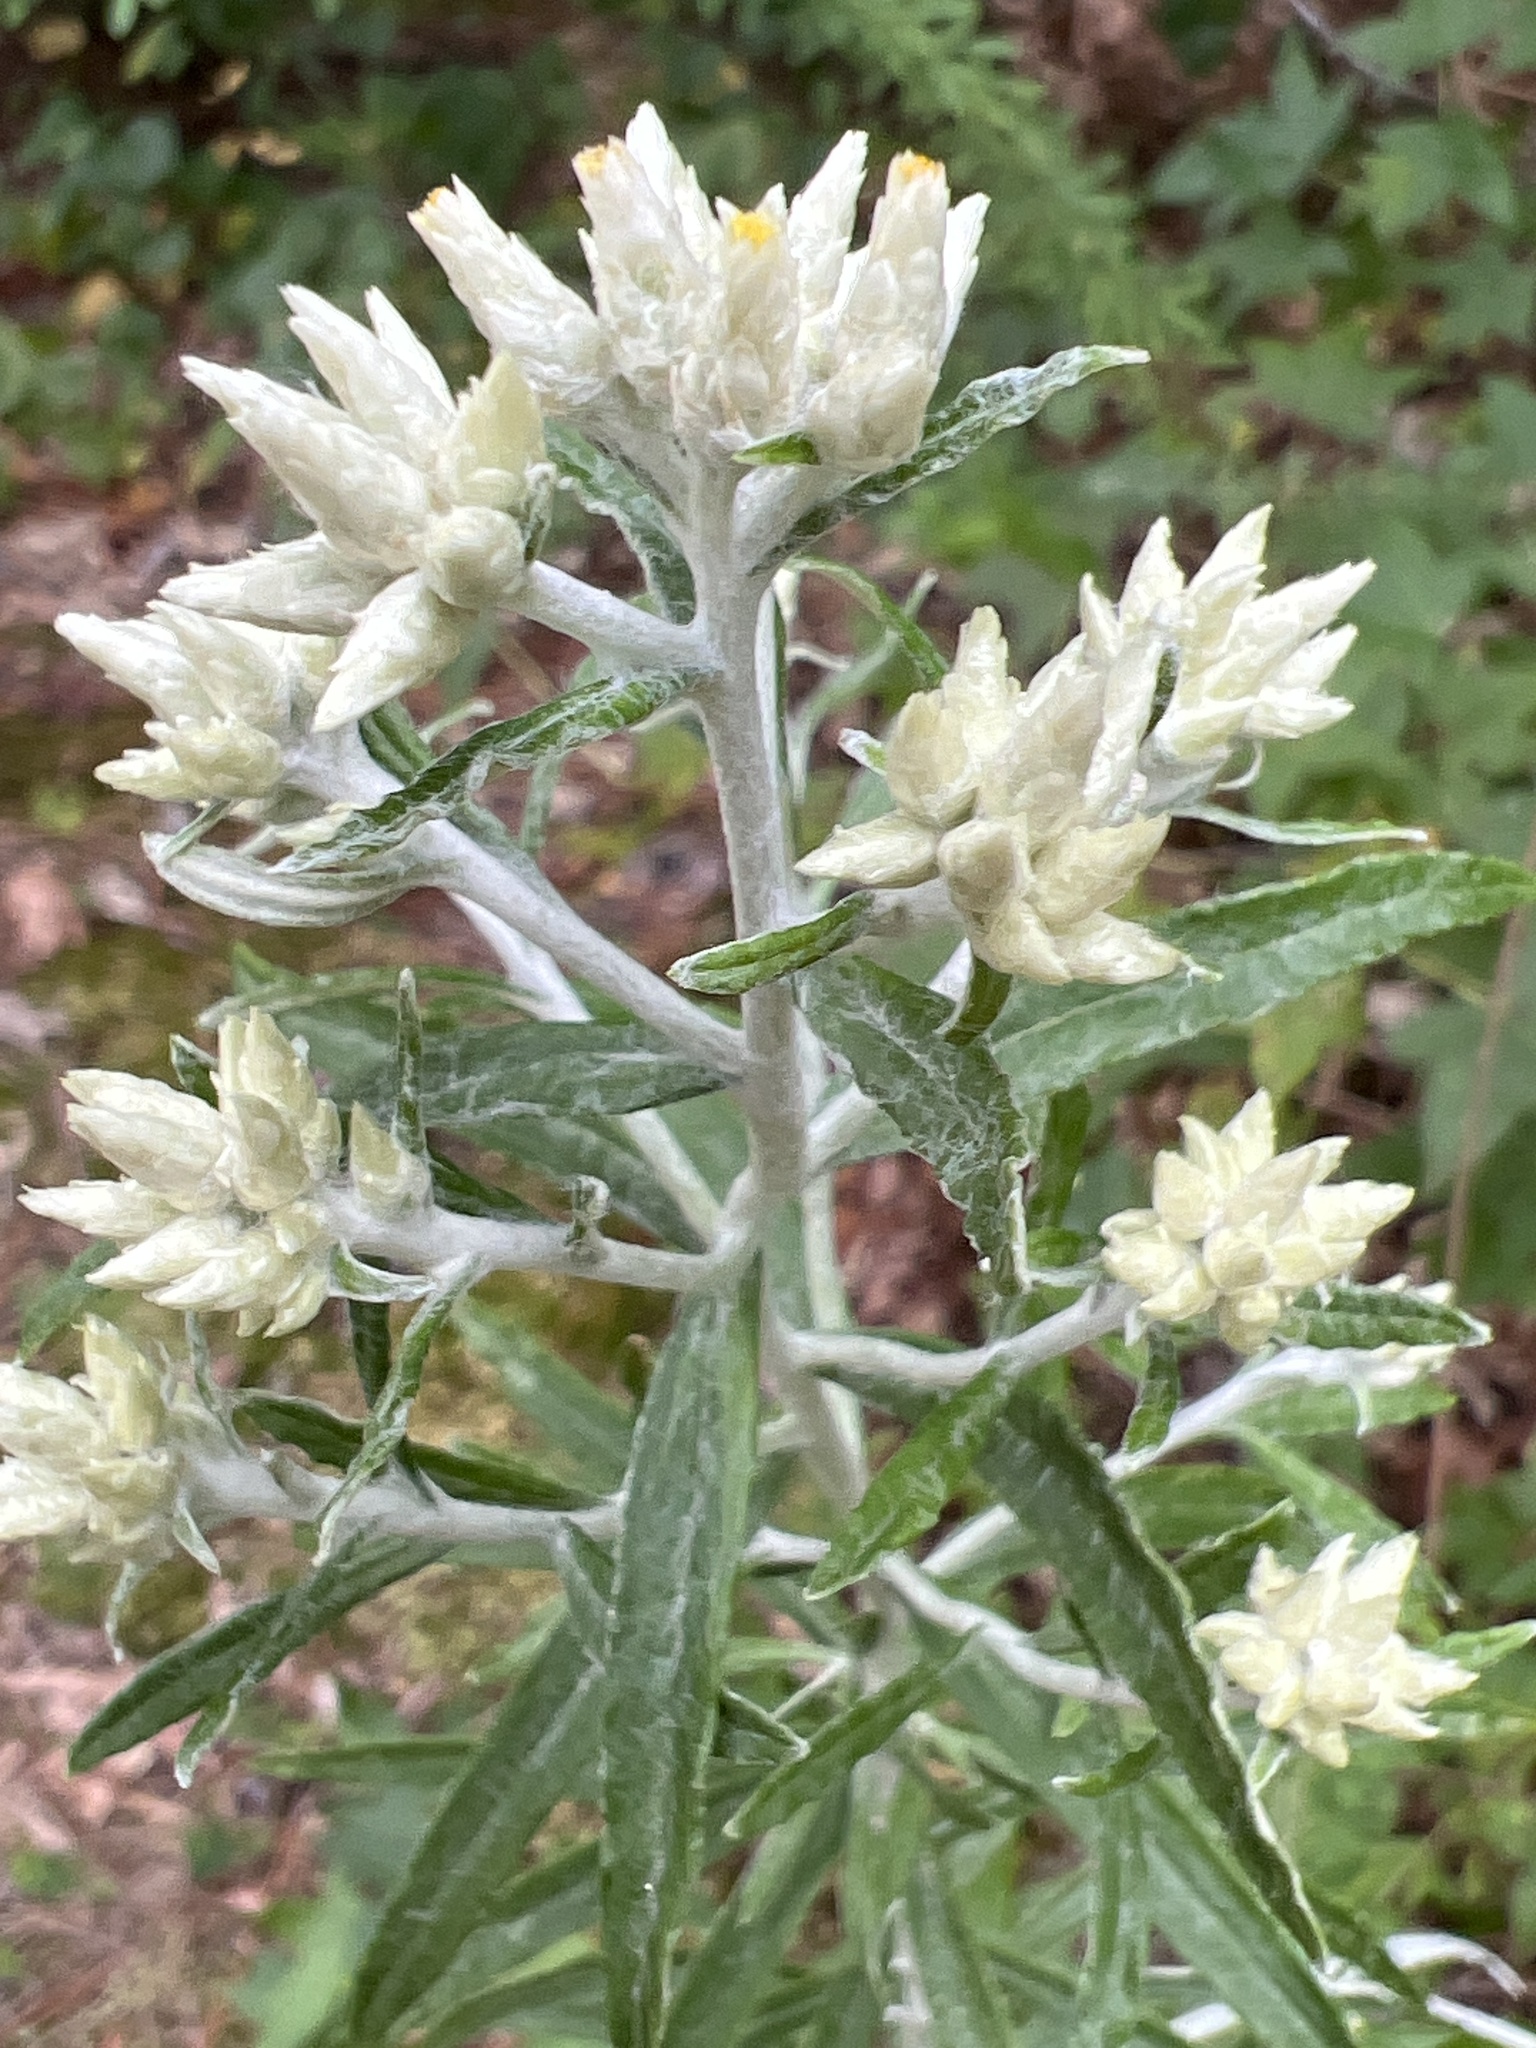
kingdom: Plantae
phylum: Tracheophyta
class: Magnoliopsida
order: Asterales
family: Asteraceae
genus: Pseudognaphalium
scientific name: Pseudognaphalium obtusifolium
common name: Eastern rabbit-tobacco
